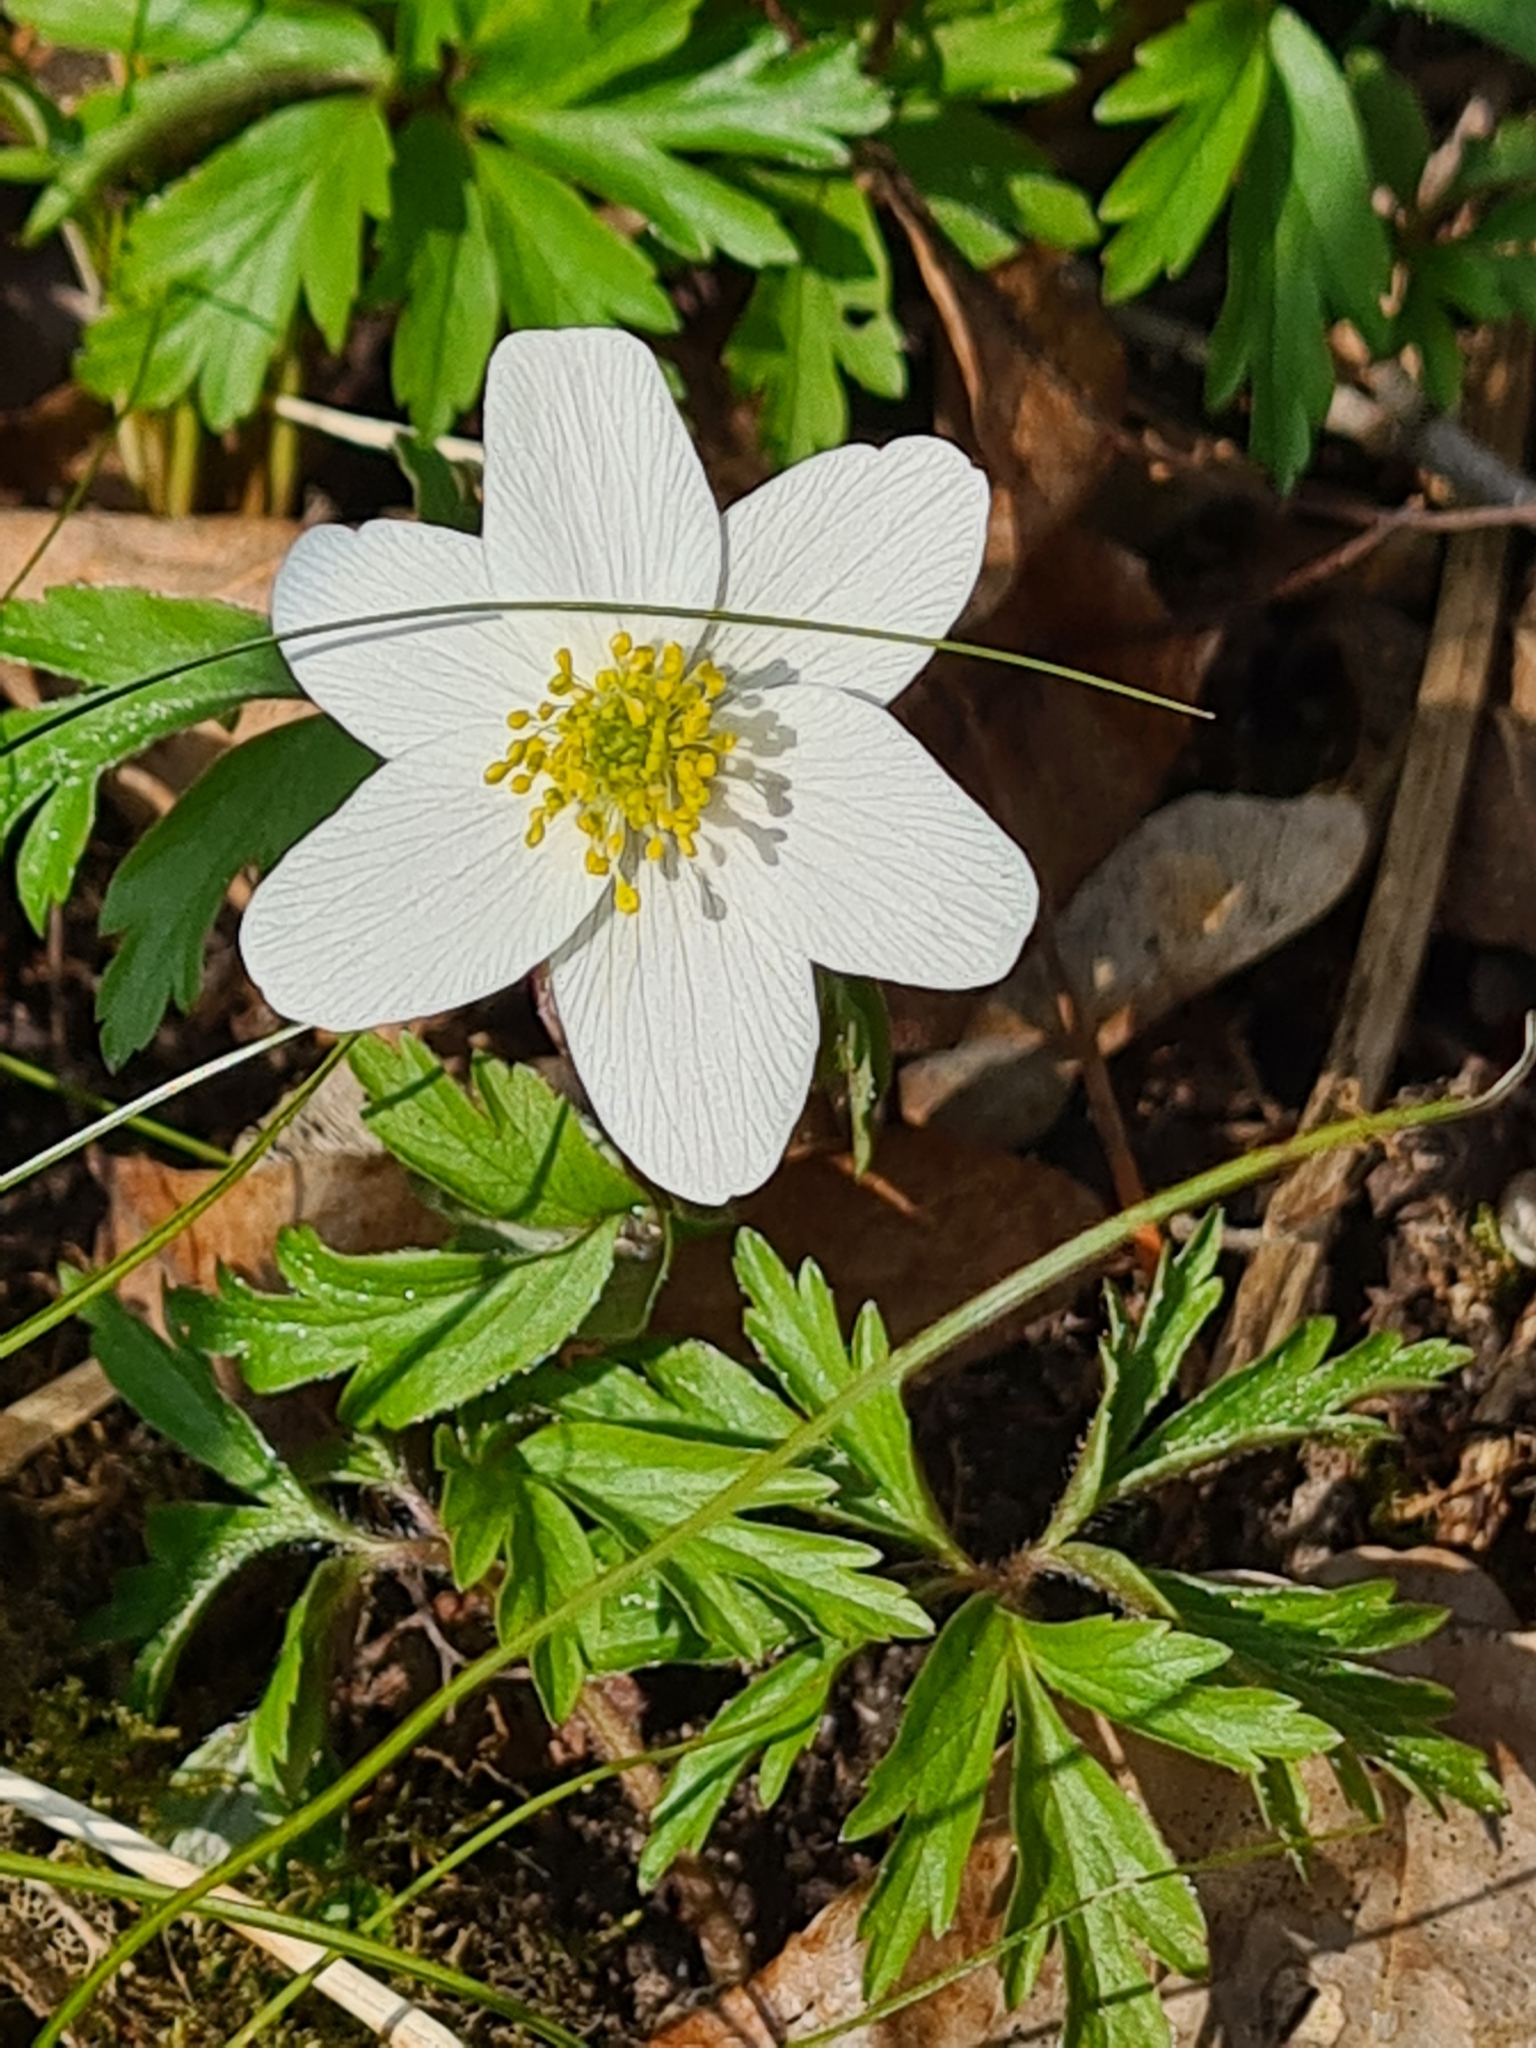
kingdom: Plantae
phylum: Tracheophyta
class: Magnoliopsida
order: Ranunculales
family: Ranunculaceae
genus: Anemone
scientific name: Anemone nemorosa
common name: Wood anemone
